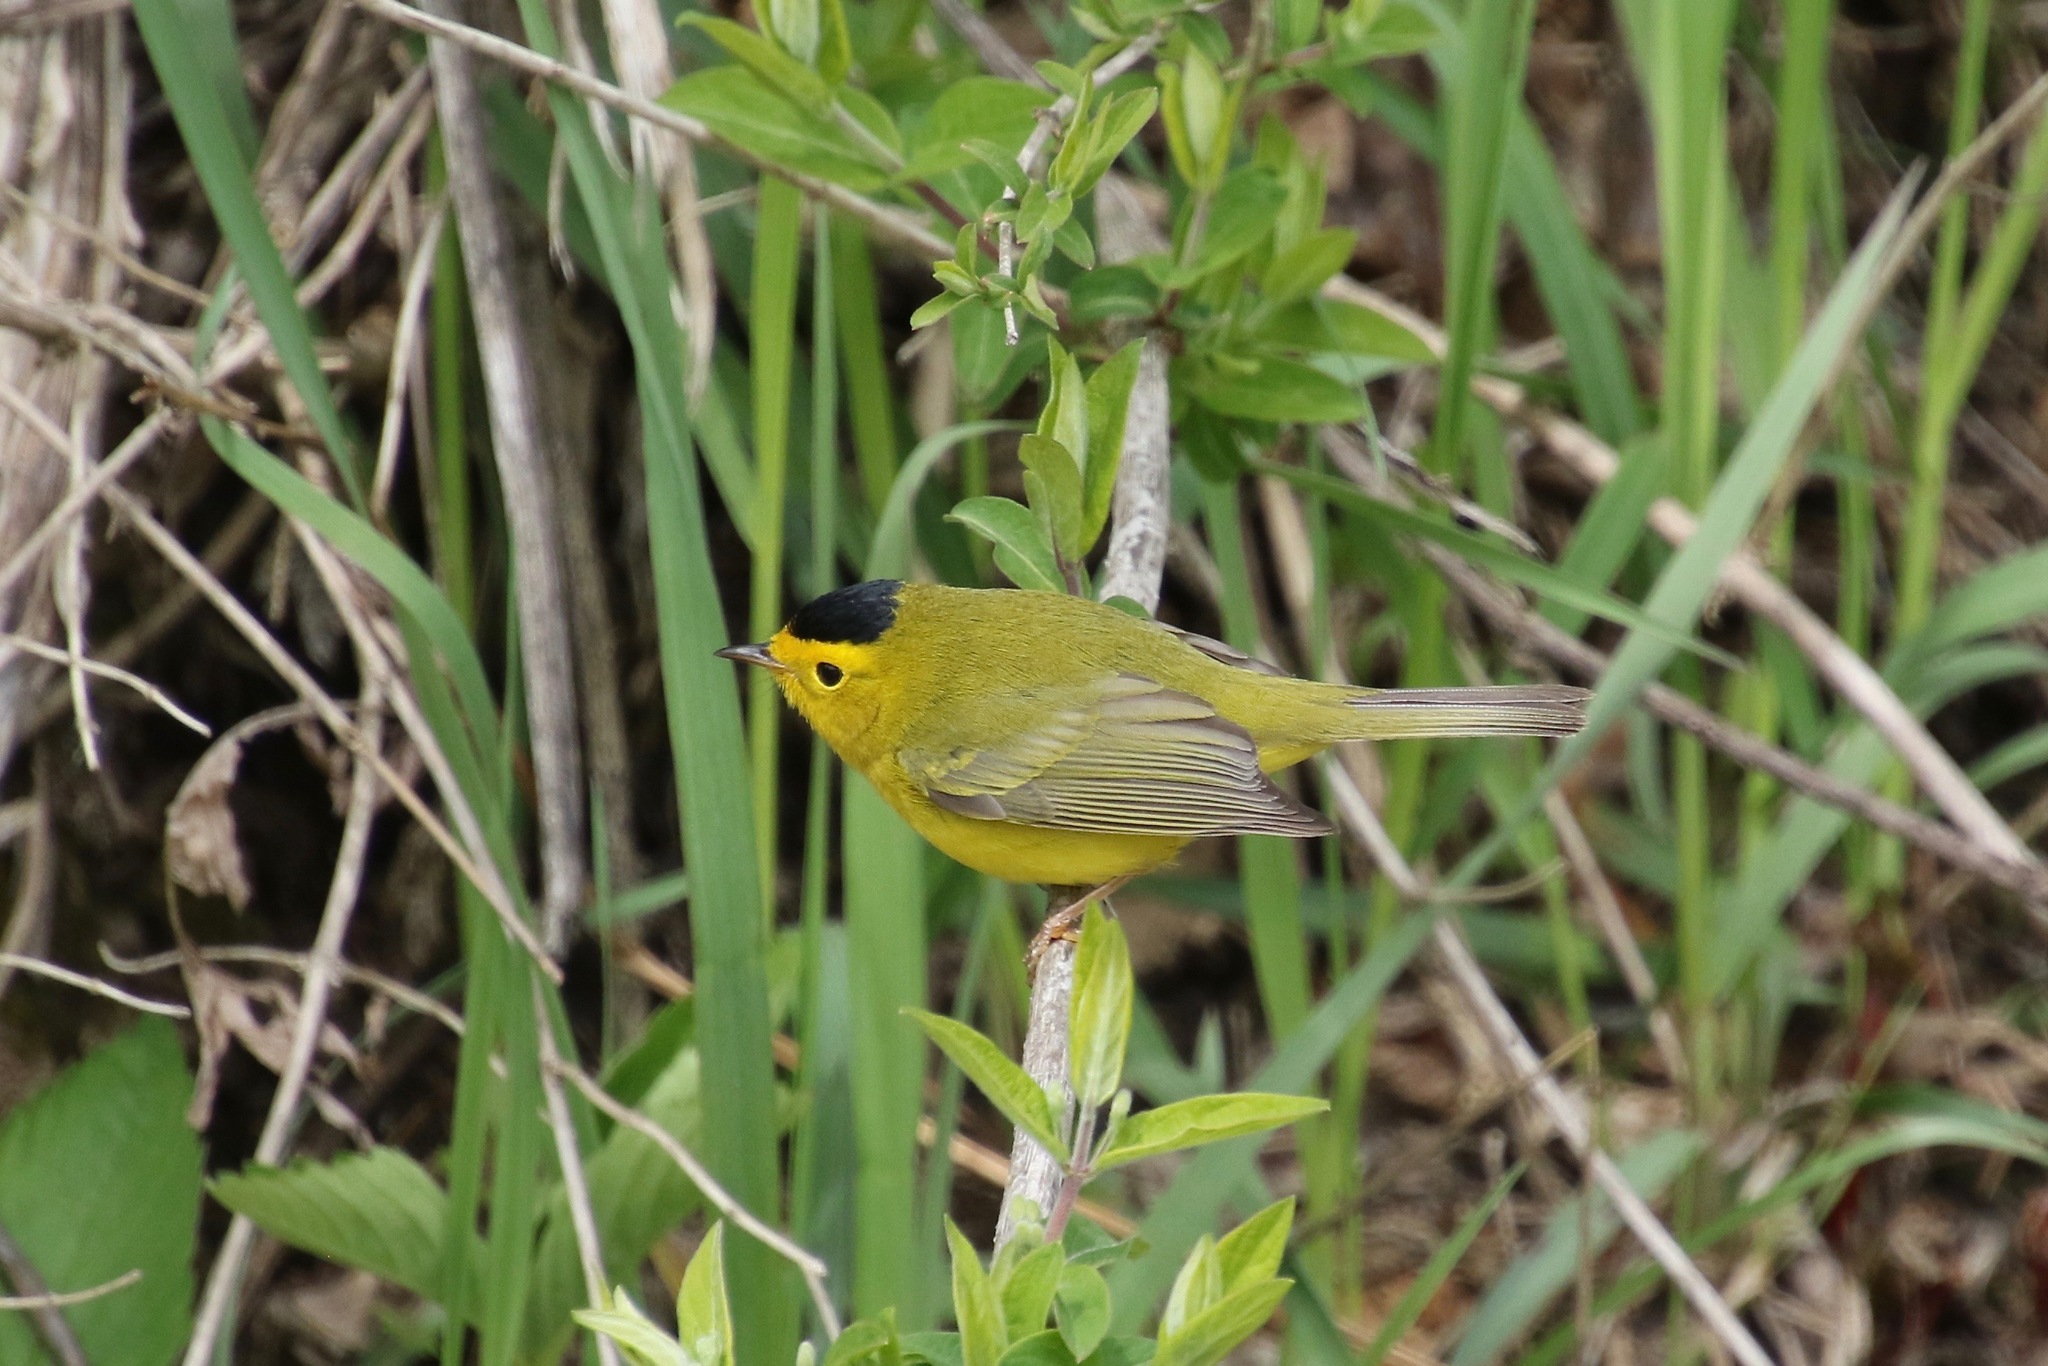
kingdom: Animalia
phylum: Chordata
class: Aves
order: Passeriformes
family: Parulidae
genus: Cardellina
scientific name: Cardellina pusilla
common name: Wilson's warbler
